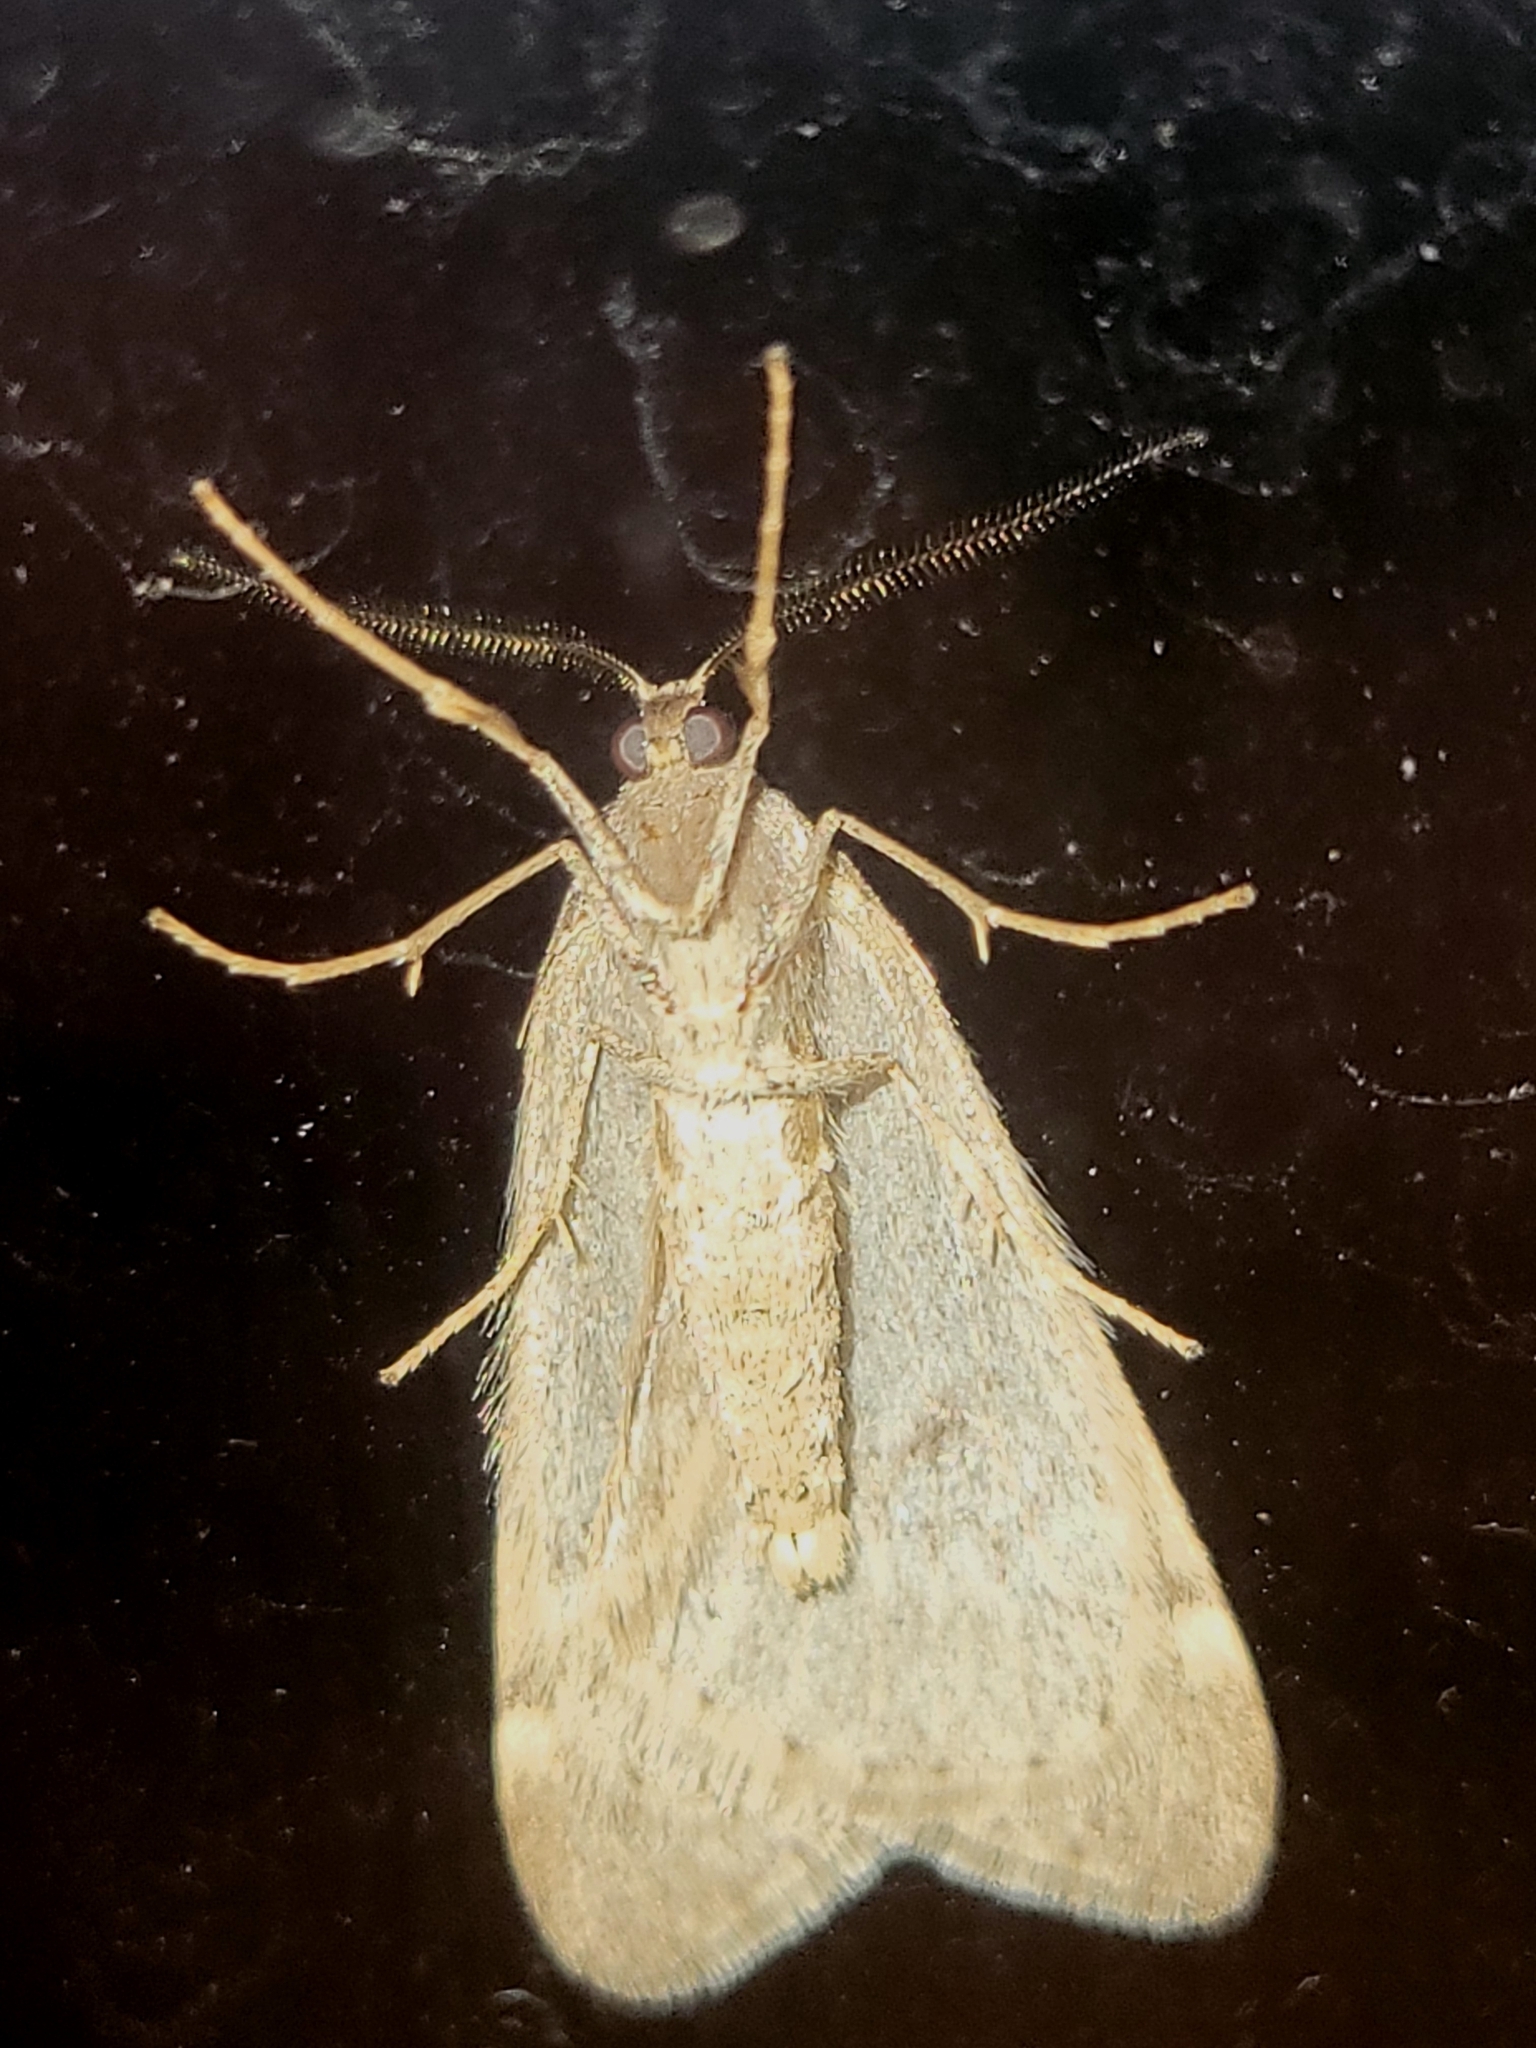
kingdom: Animalia
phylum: Arthropoda
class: Insecta
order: Lepidoptera
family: Geometridae
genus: Alsophila
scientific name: Alsophila pometaria
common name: Fall cankerworm
